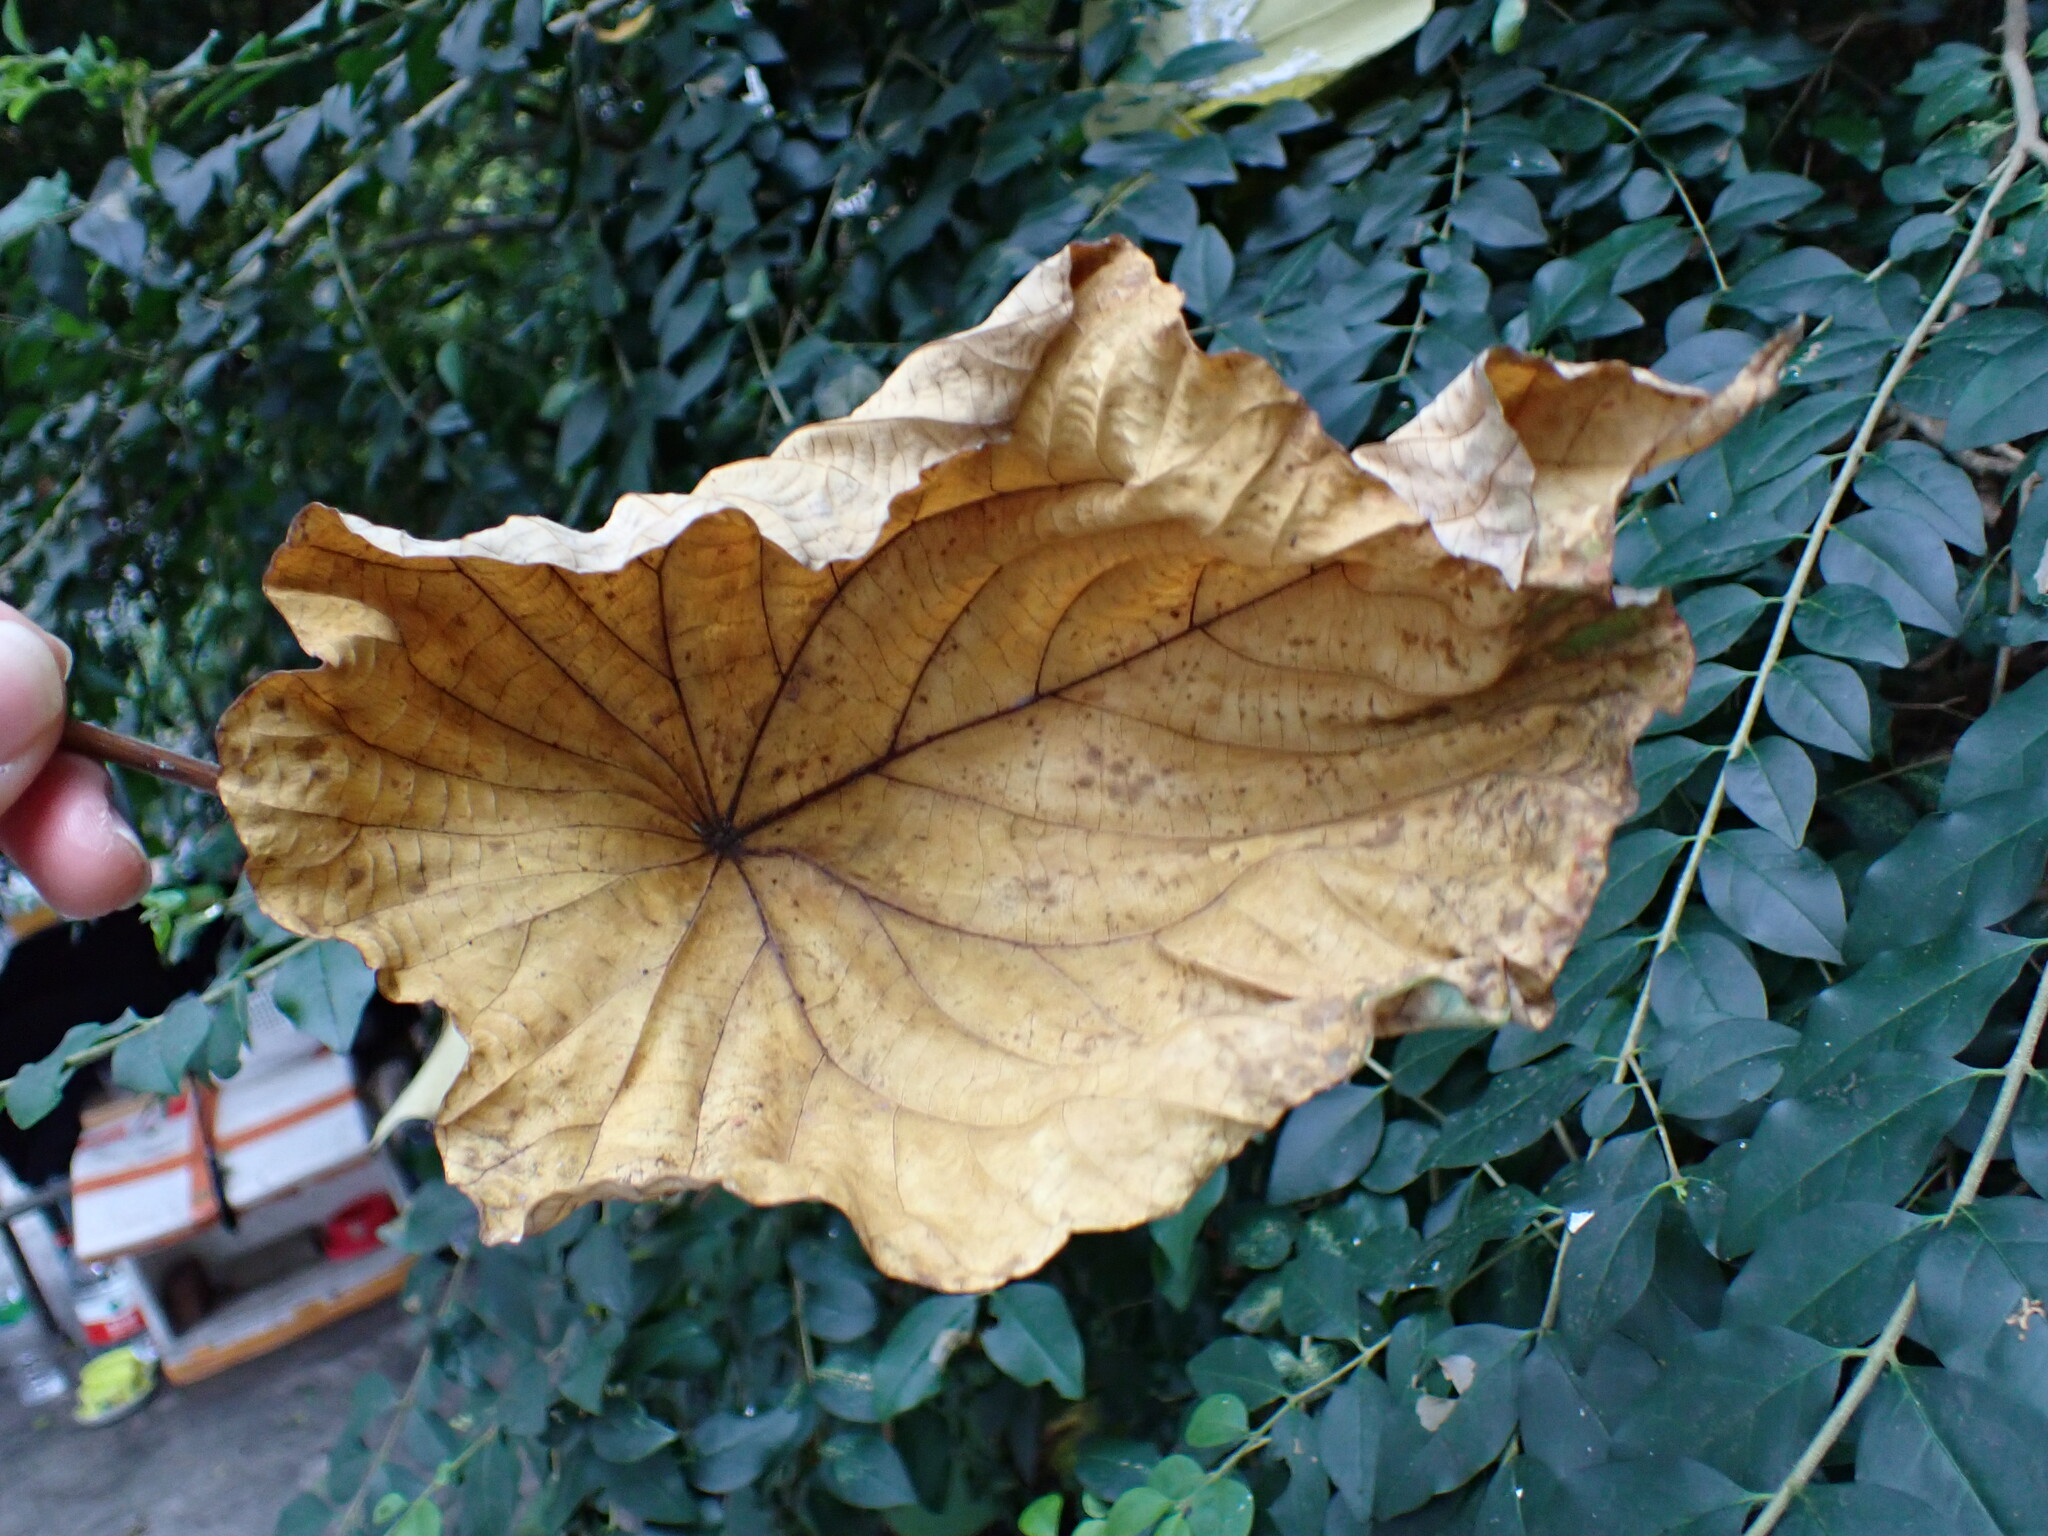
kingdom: Animalia
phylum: Arthropoda
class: Insecta
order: Hemiptera
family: Margarodidae
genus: Icerya
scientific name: Icerya aegyptiaca
